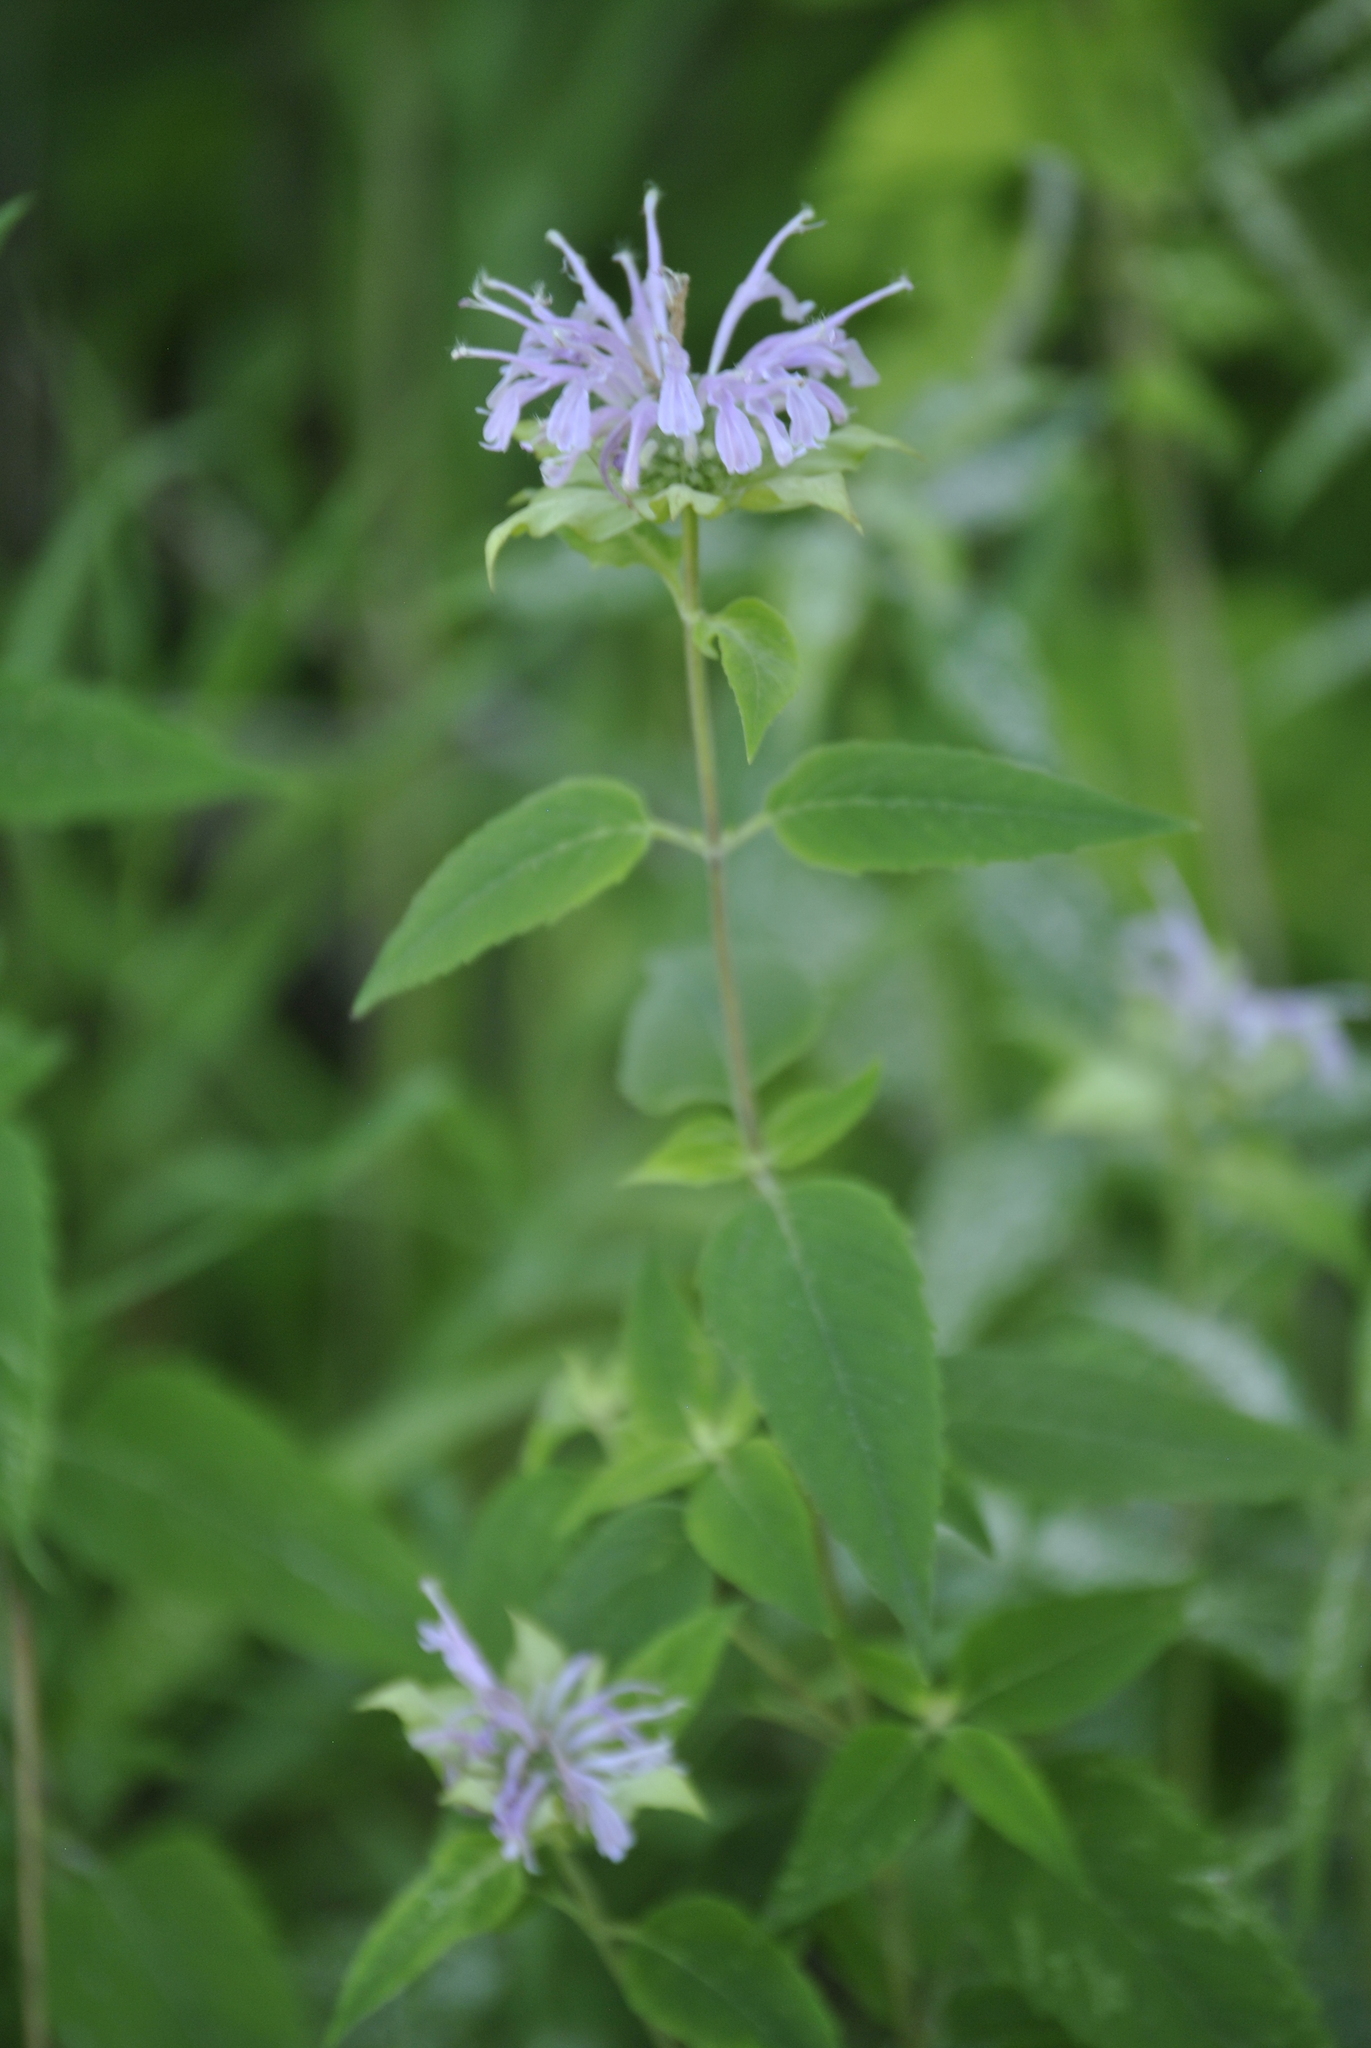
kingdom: Plantae
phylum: Tracheophyta
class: Magnoliopsida
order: Lamiales
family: Lamiaceae
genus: Monarda
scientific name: Monarda fistulosa
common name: Purple beebalm
